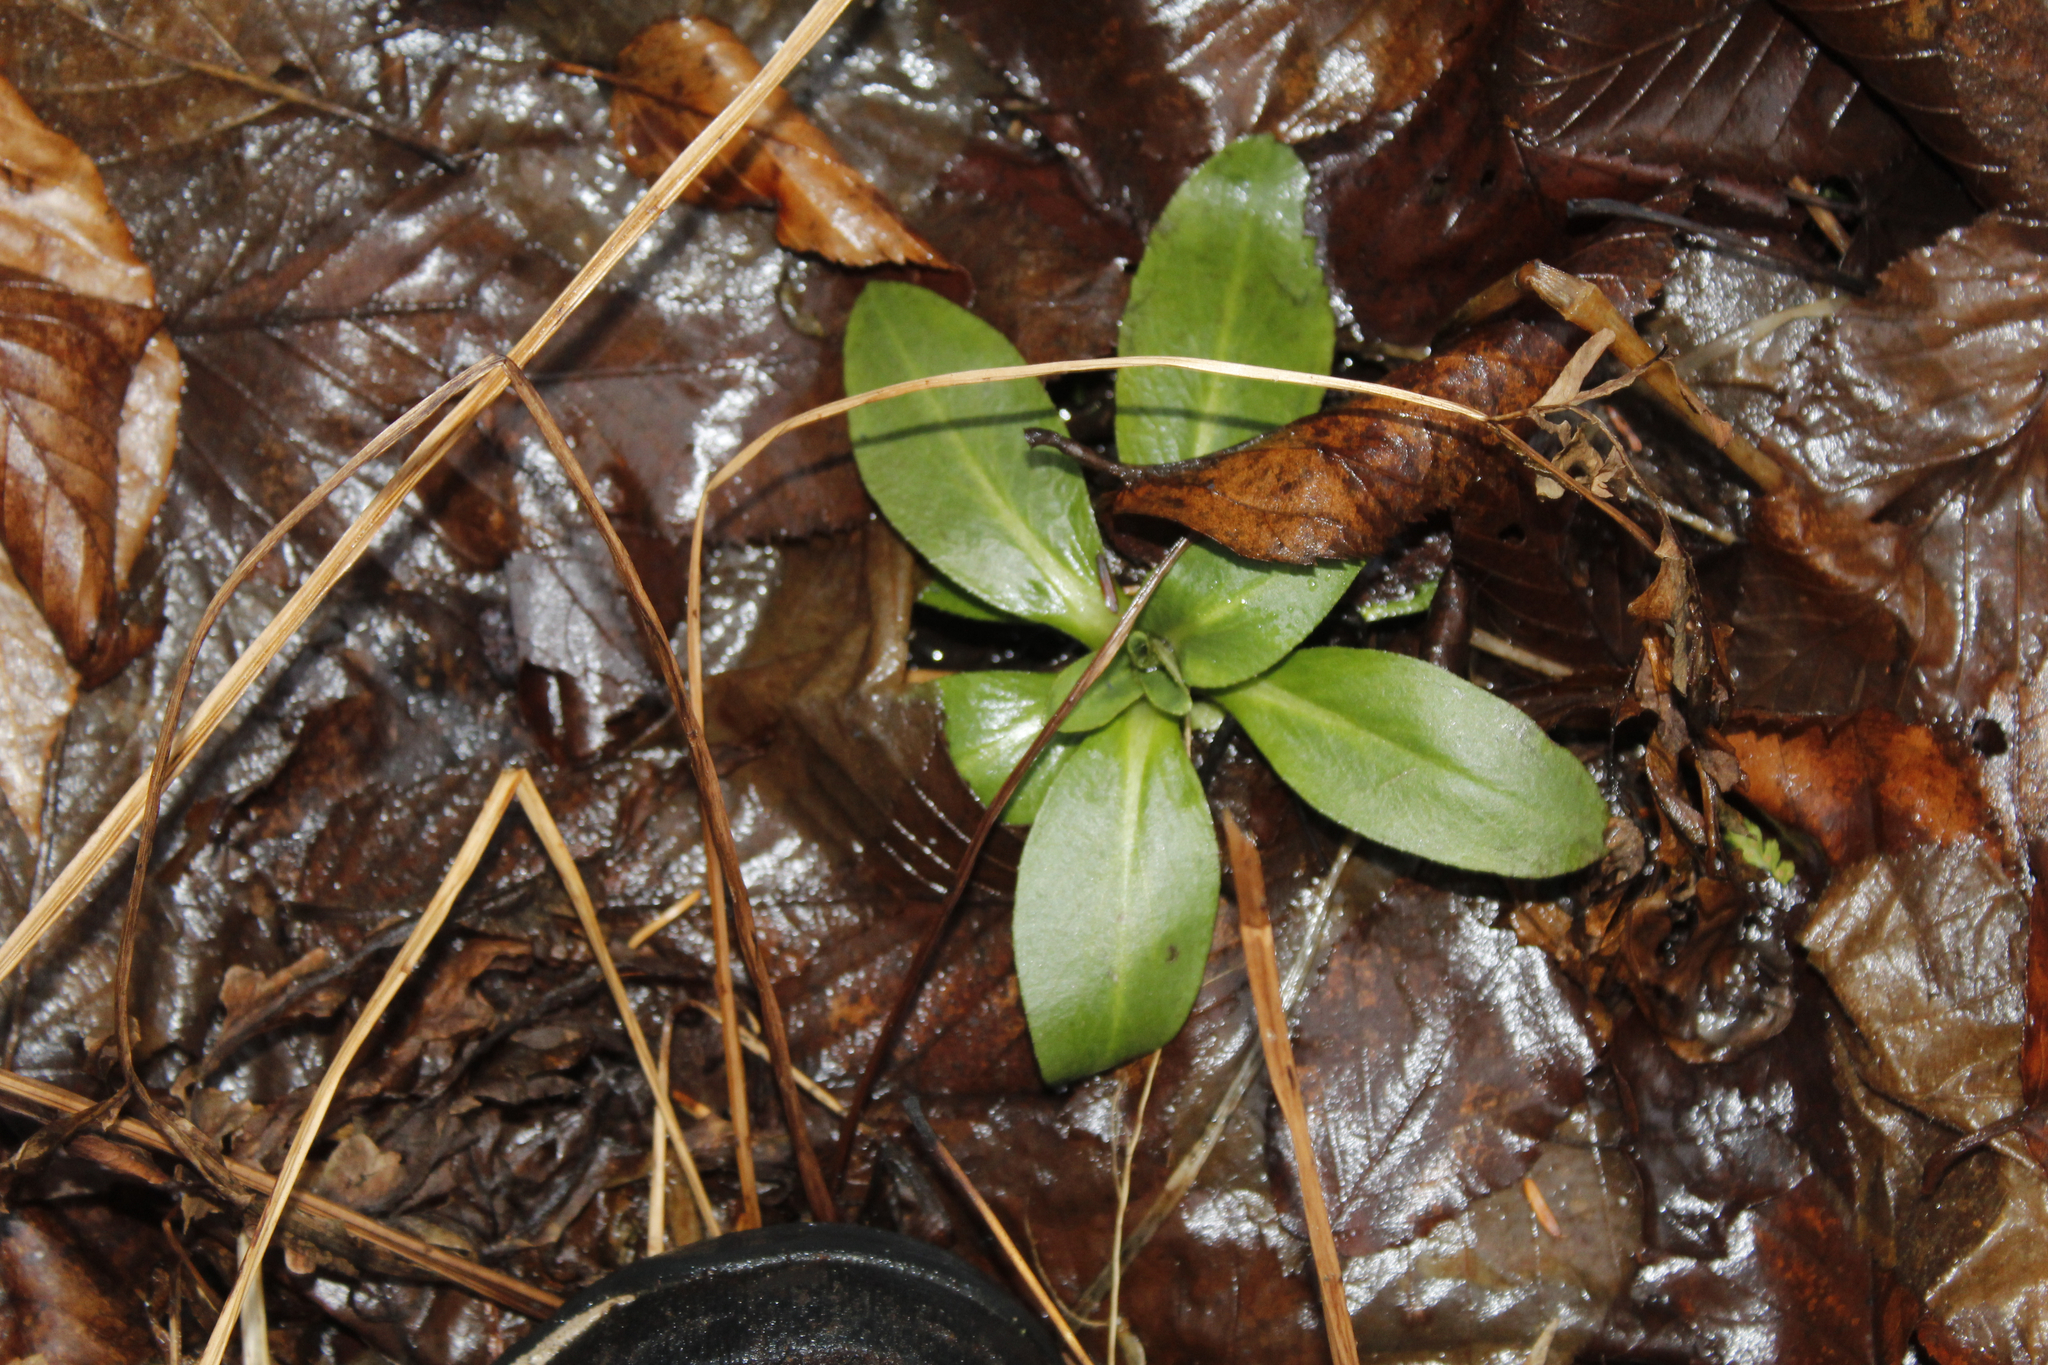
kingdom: Plantae
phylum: Tracheophyta
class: Magnoliopsida
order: Saxifragales
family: Saxifragaceae
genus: Micranthes
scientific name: Micranthes pensylvanica
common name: Marsh saxifrage
